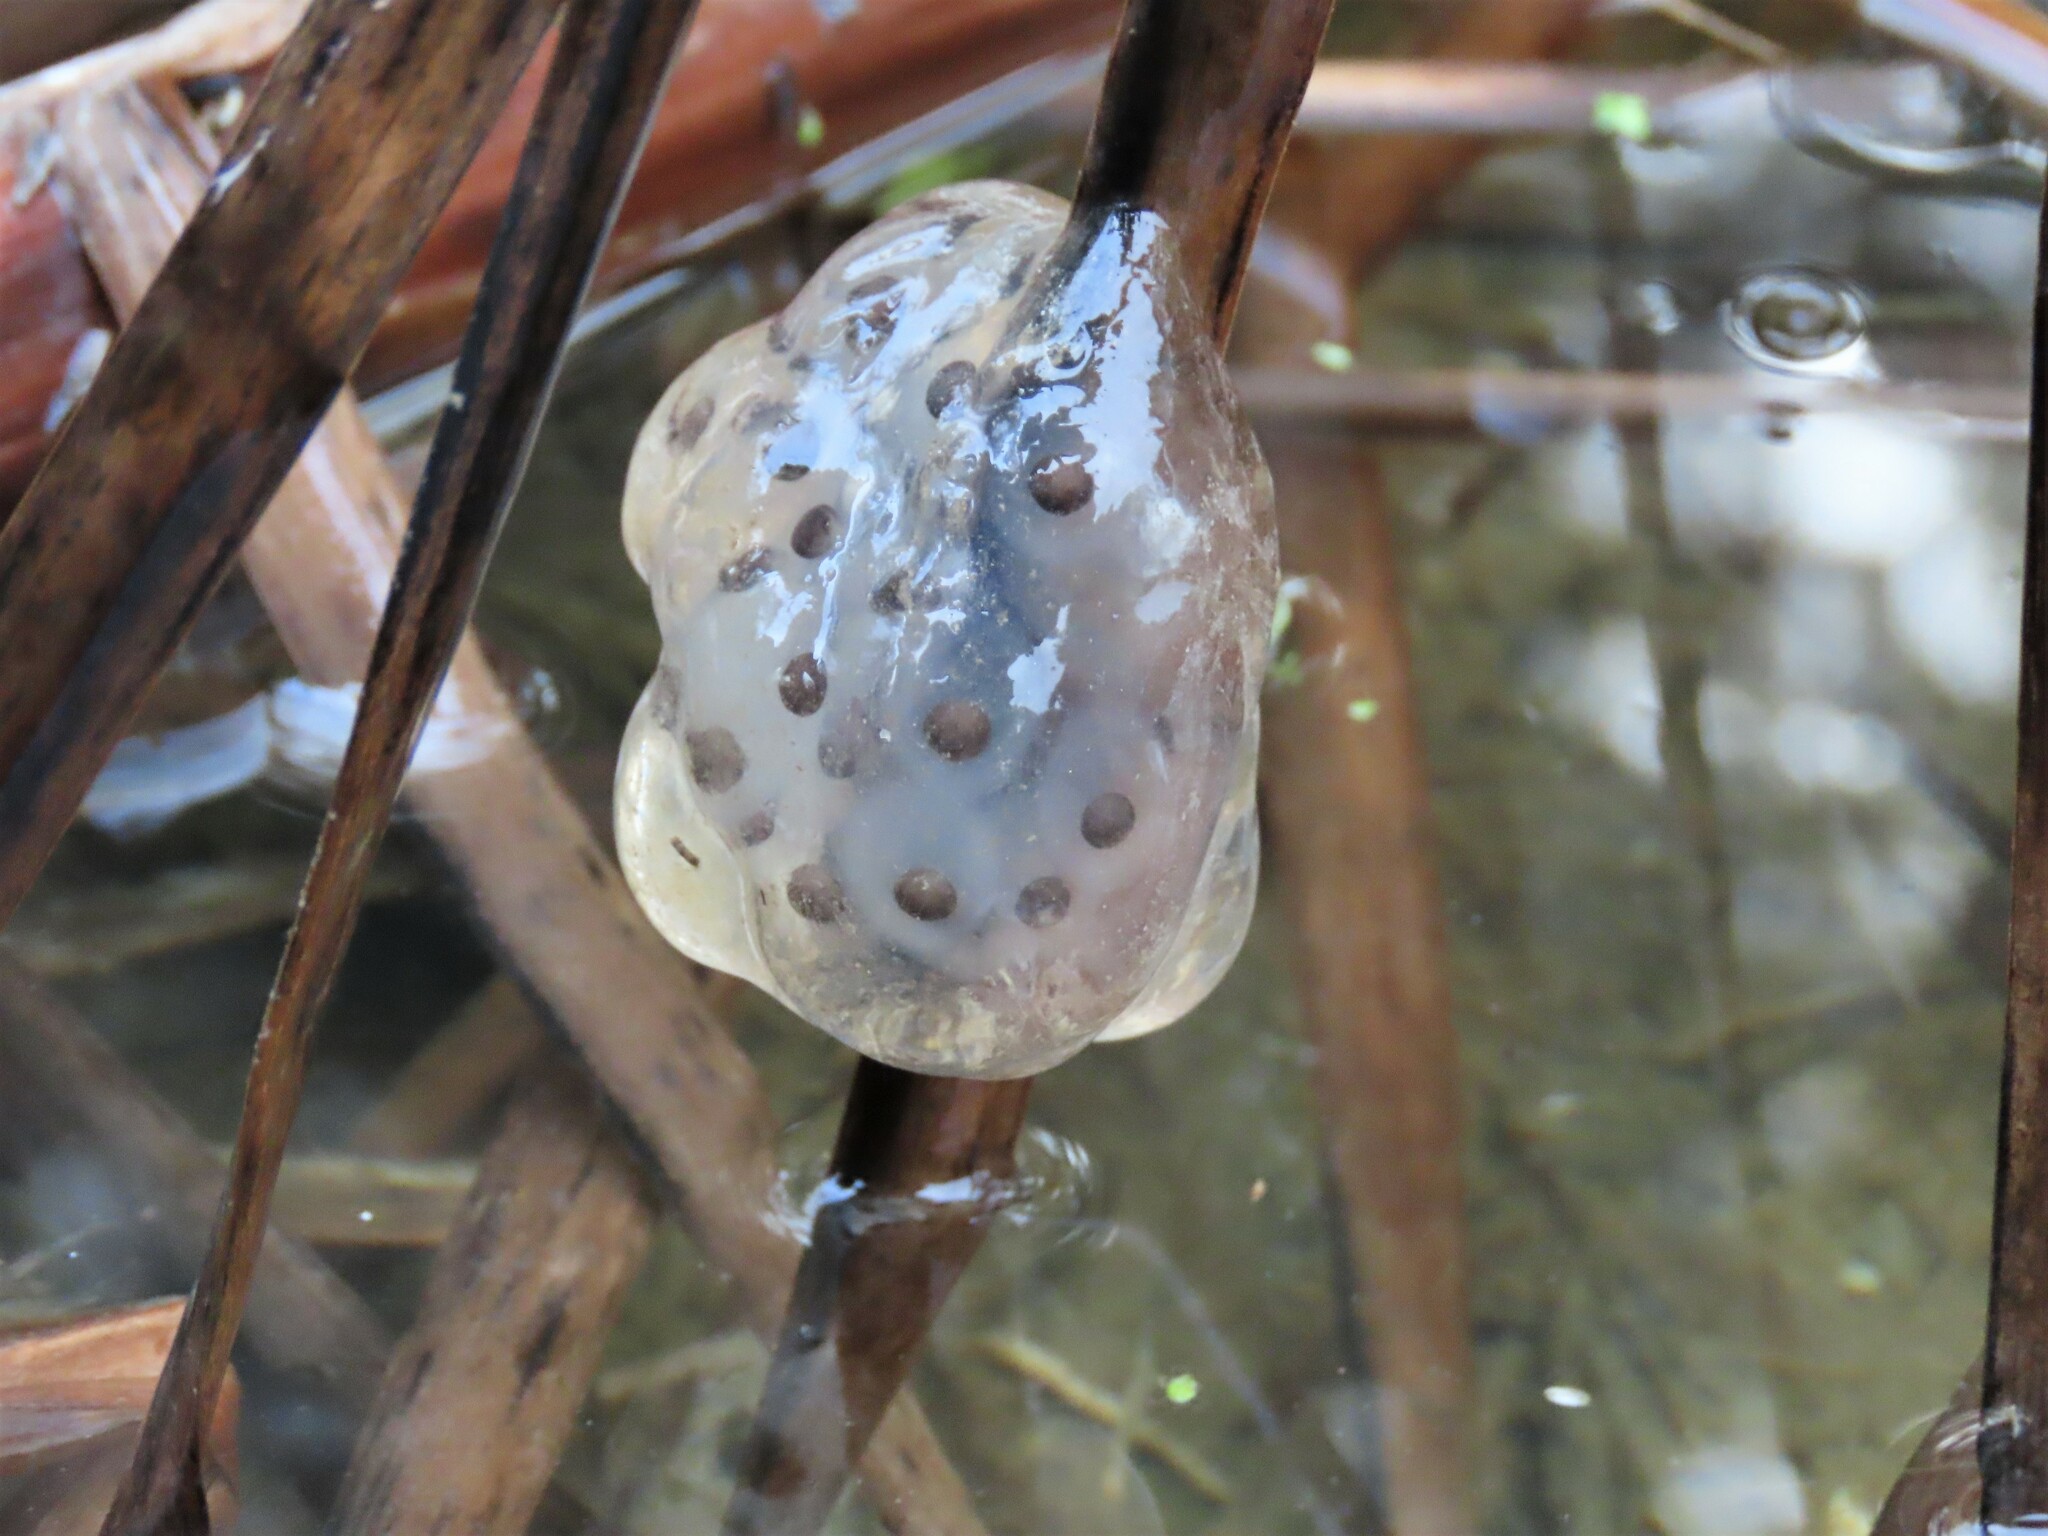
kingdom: Animalia
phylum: Chordata
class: Amphibia
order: Caudata
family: Ambystomatidae
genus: Ambystoma
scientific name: Ambystoma maculatum
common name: Spotted salamander
